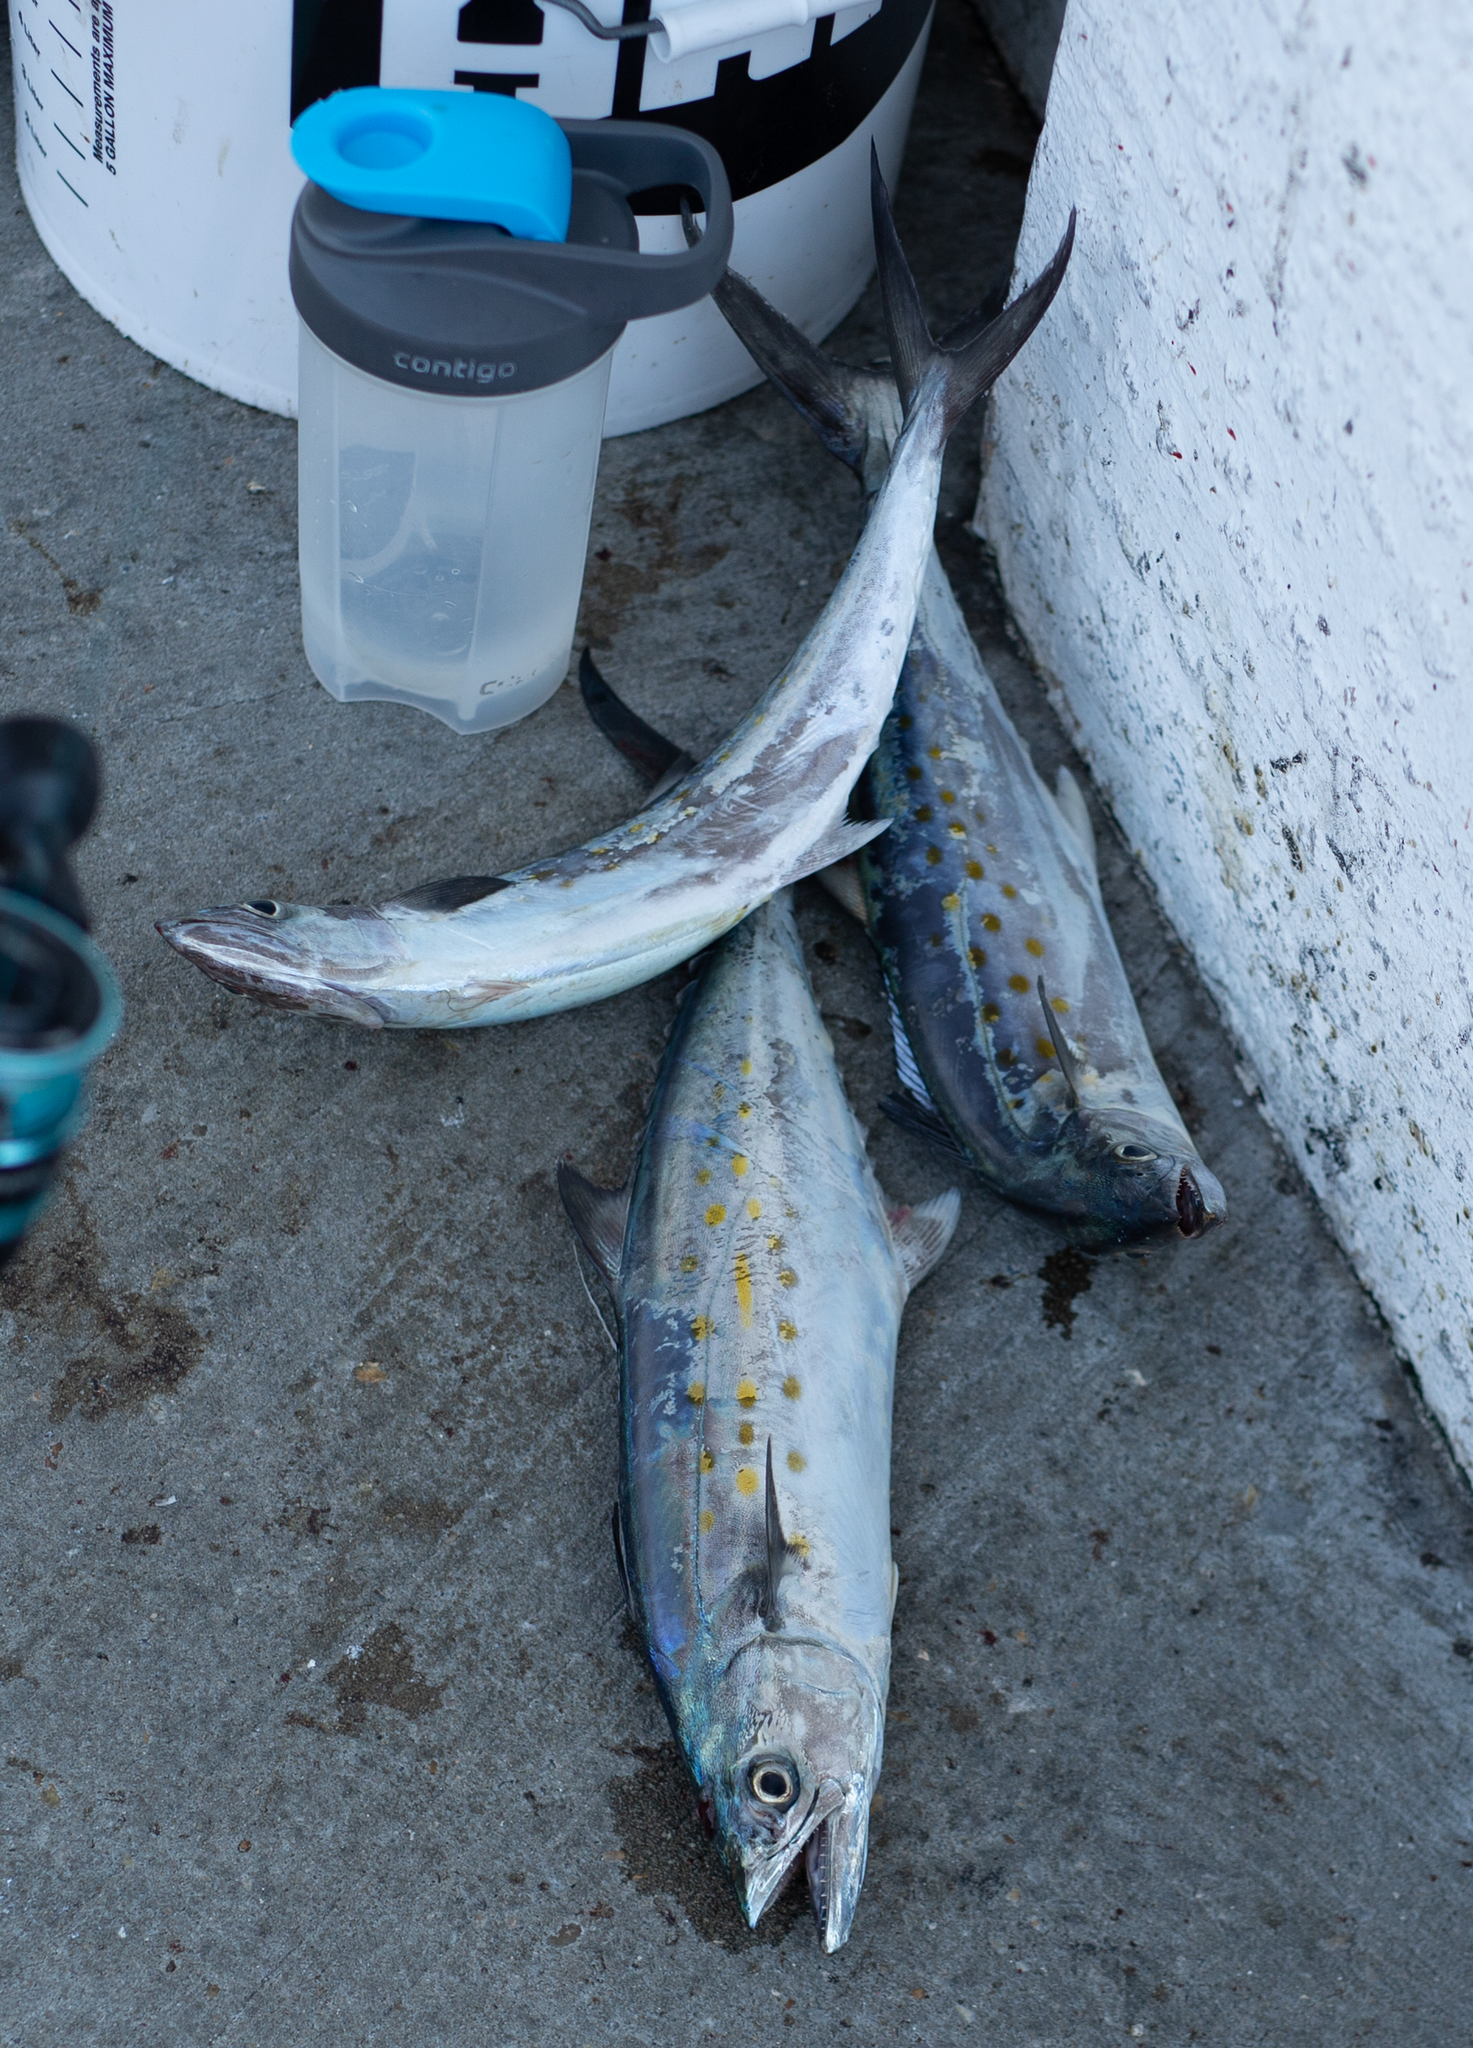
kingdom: Animalia
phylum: Chordata
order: Perciformes
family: Scombridae
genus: Scomberomorus
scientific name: Scomberomorus maculatus
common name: Spanish mackerel
